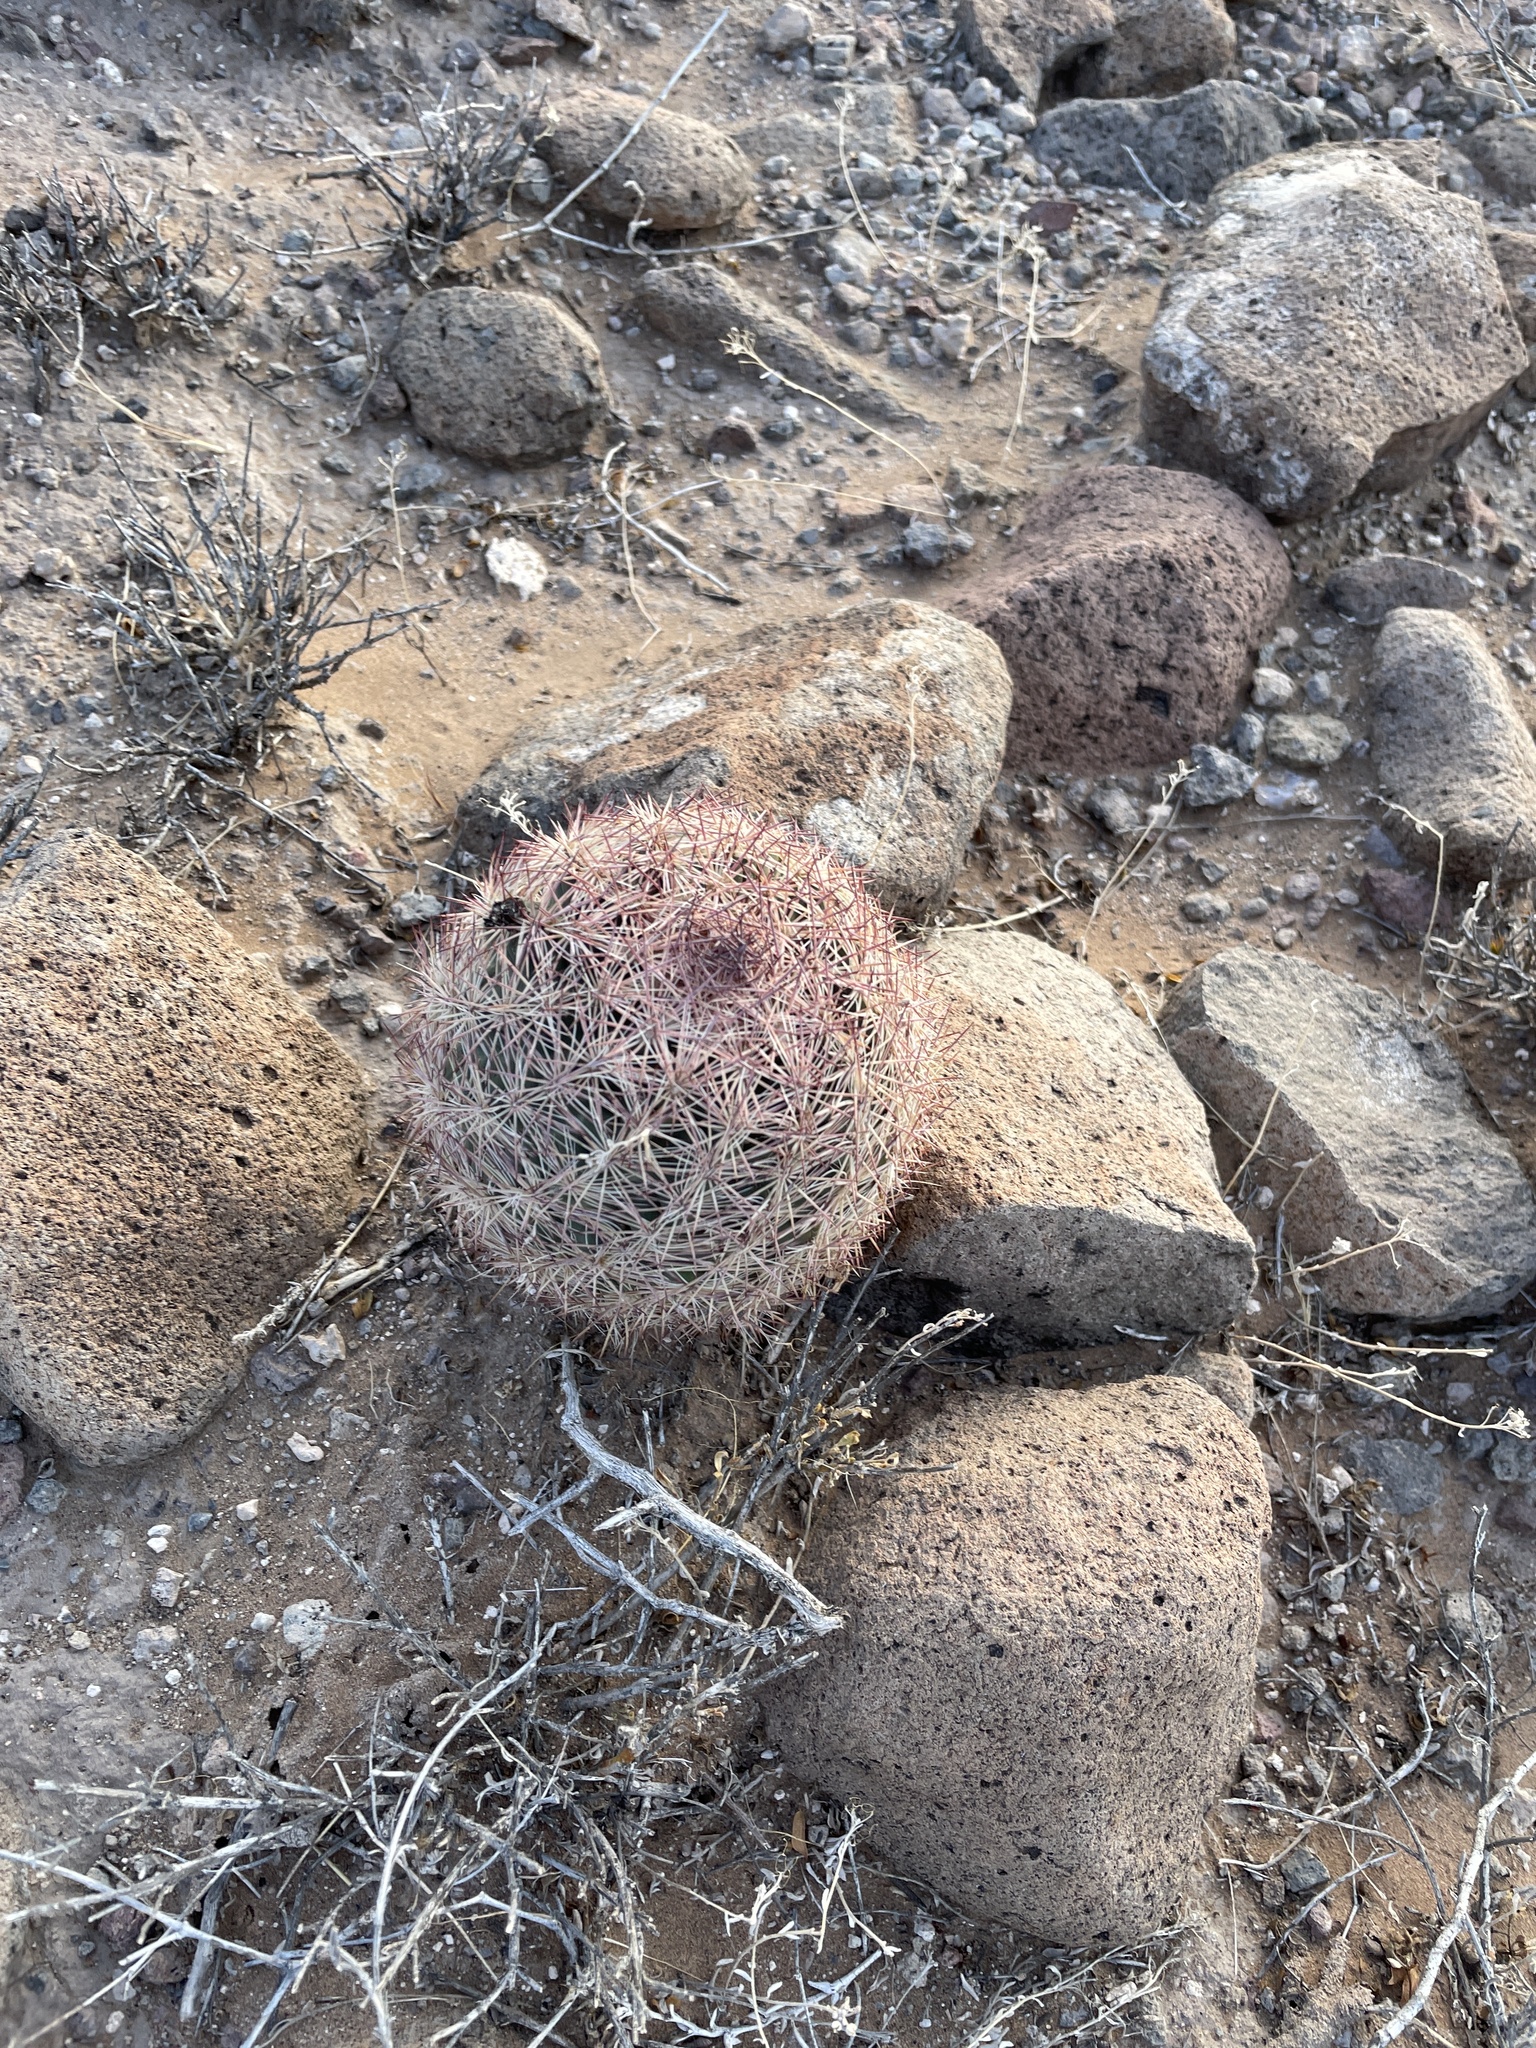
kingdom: Plantae
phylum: Tracheophyta
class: Magnoliopsida
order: Caryophyllales
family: Cactaceae
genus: Sclerocactus
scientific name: Sclerocactus intertextus
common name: White fish-hook cactus
